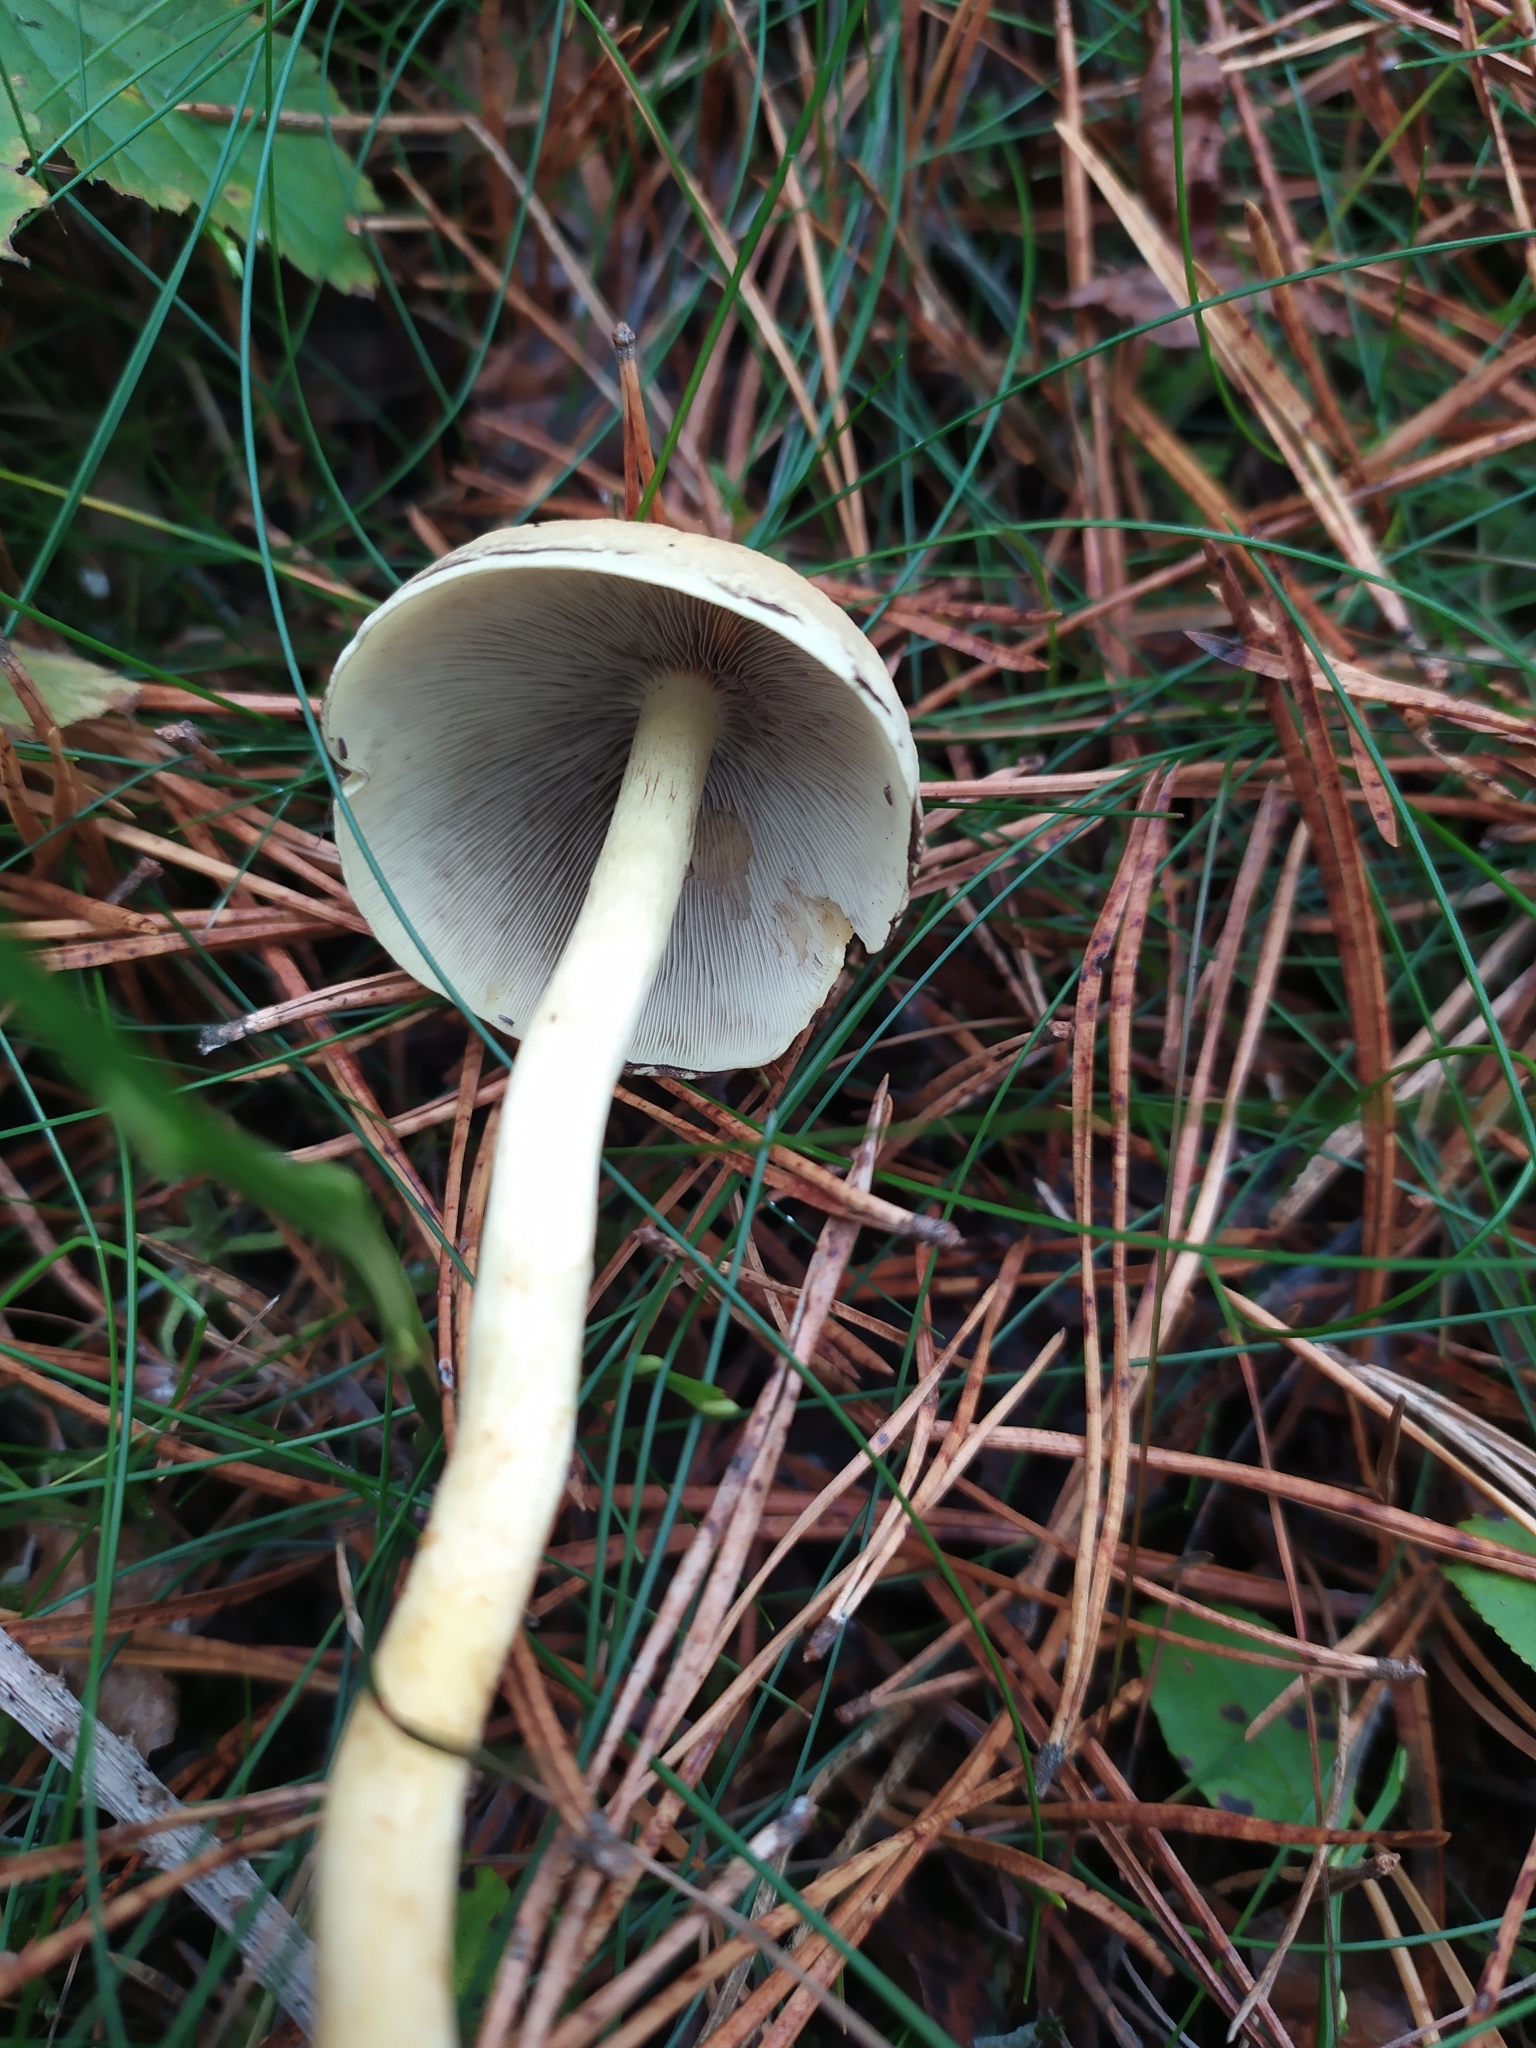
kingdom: Fungi
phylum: Basidiomycota
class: Agaricomycetes
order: Agaricales
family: Strophariaceae
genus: Hypholoma
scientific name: Hypholoma fasciculare
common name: Sulphur tuft
